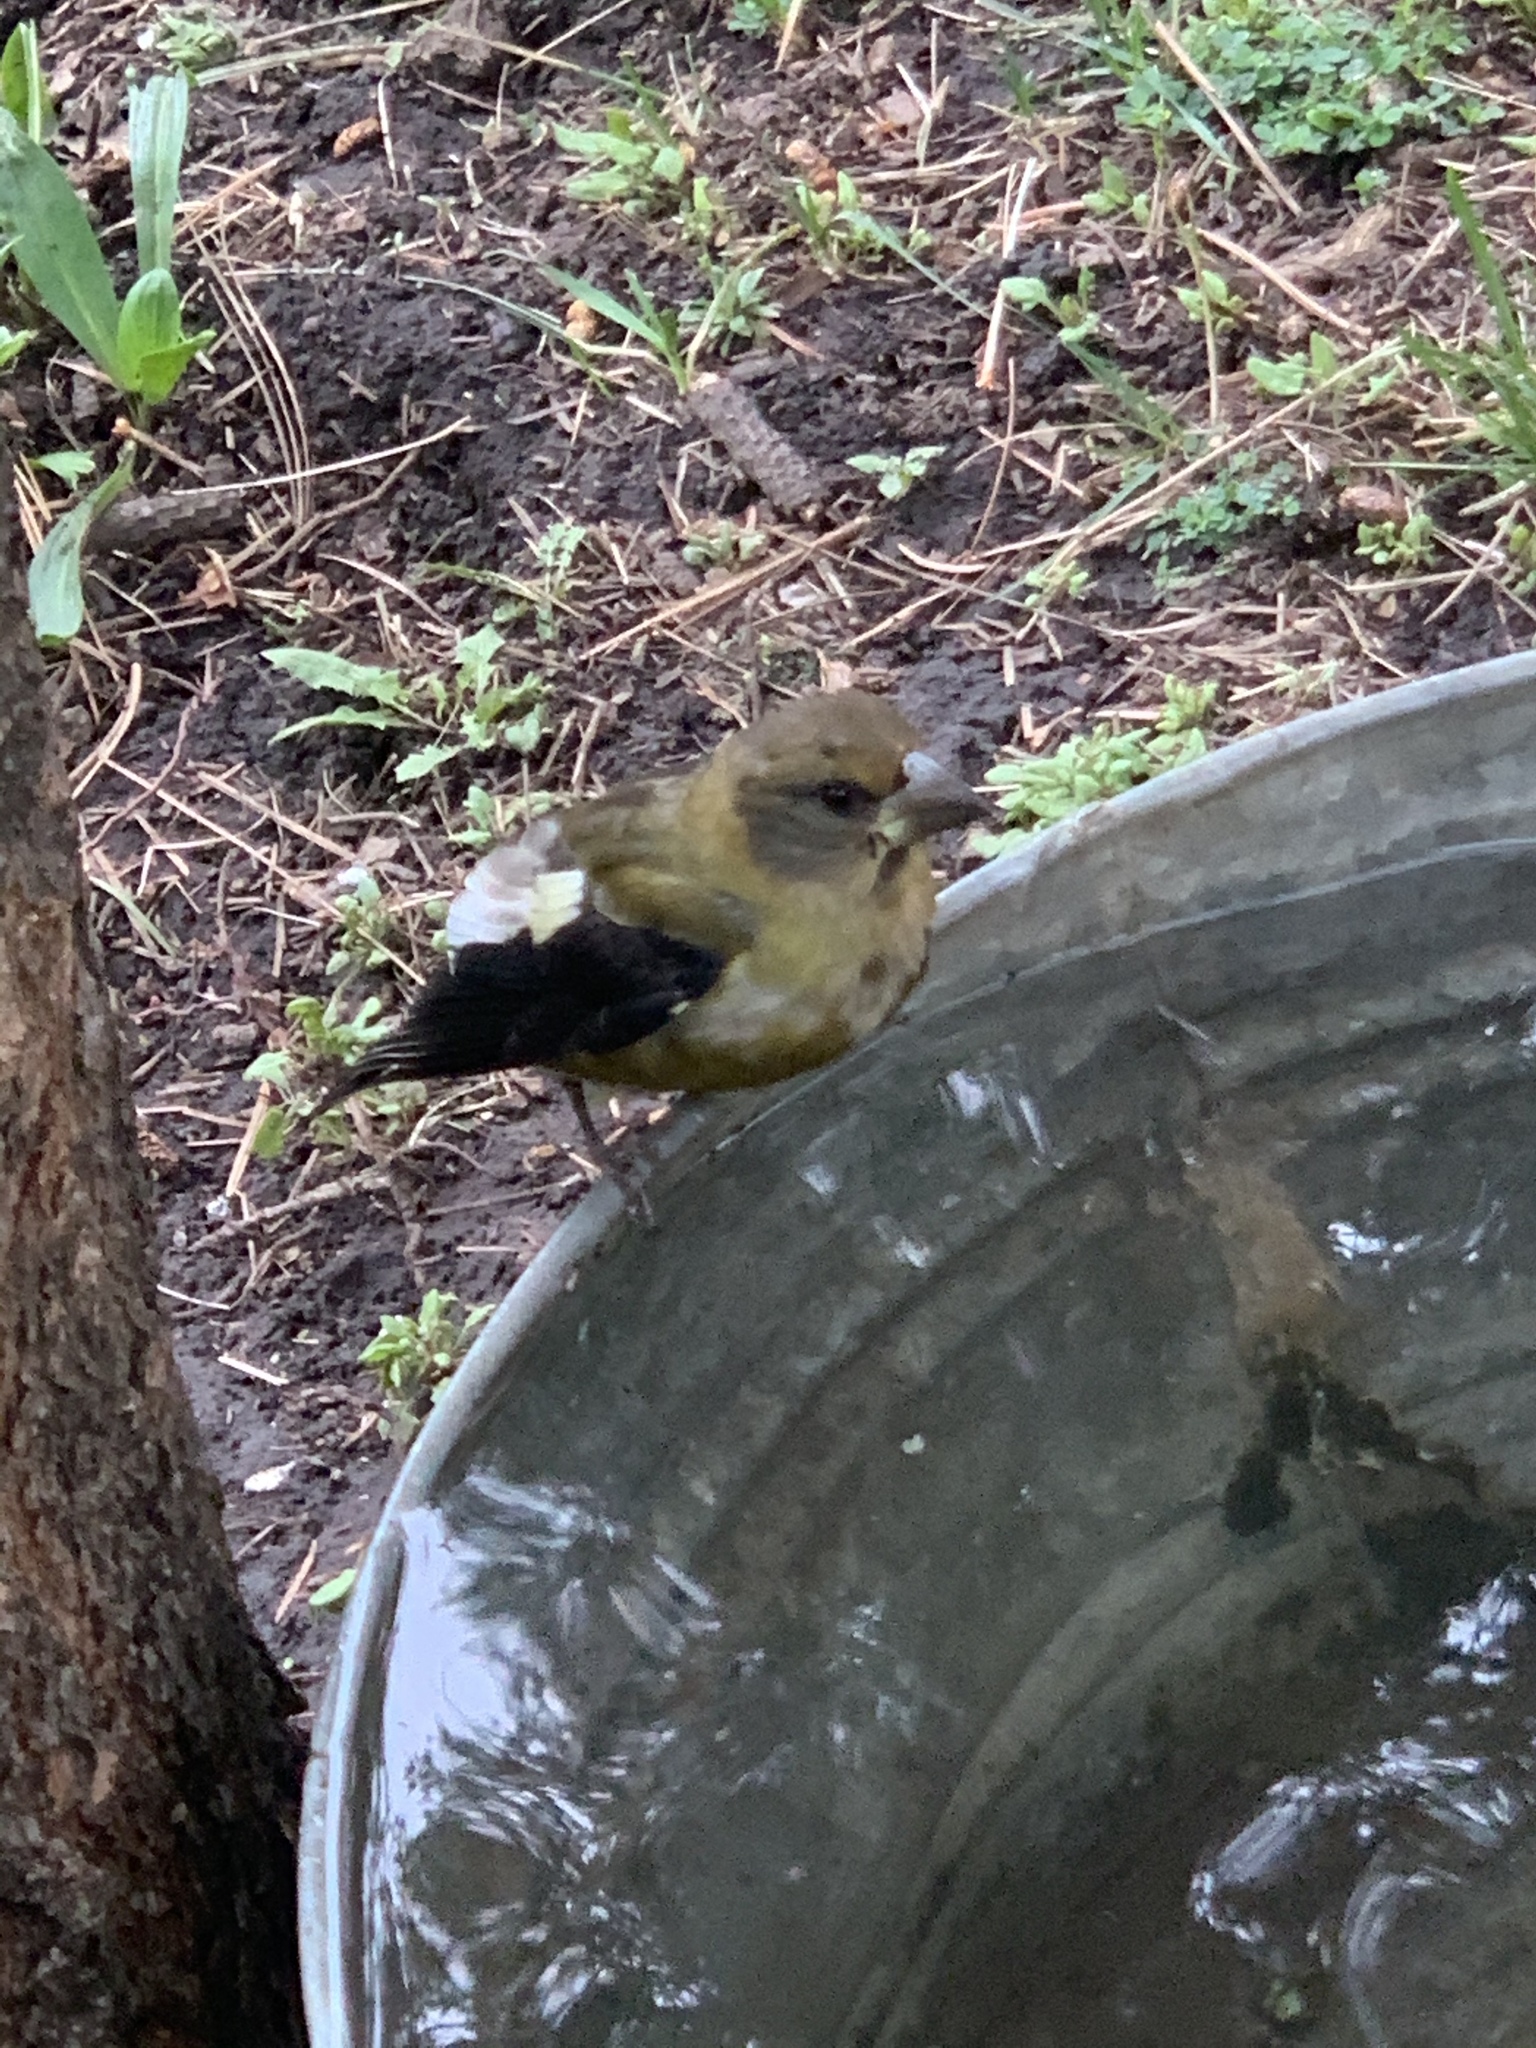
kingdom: Animalia
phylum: Chordata
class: Aves
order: Passeriformes
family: Fringillidae
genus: Hesperiphona
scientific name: Hesperiphona vespertina
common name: Evening grosbeak
